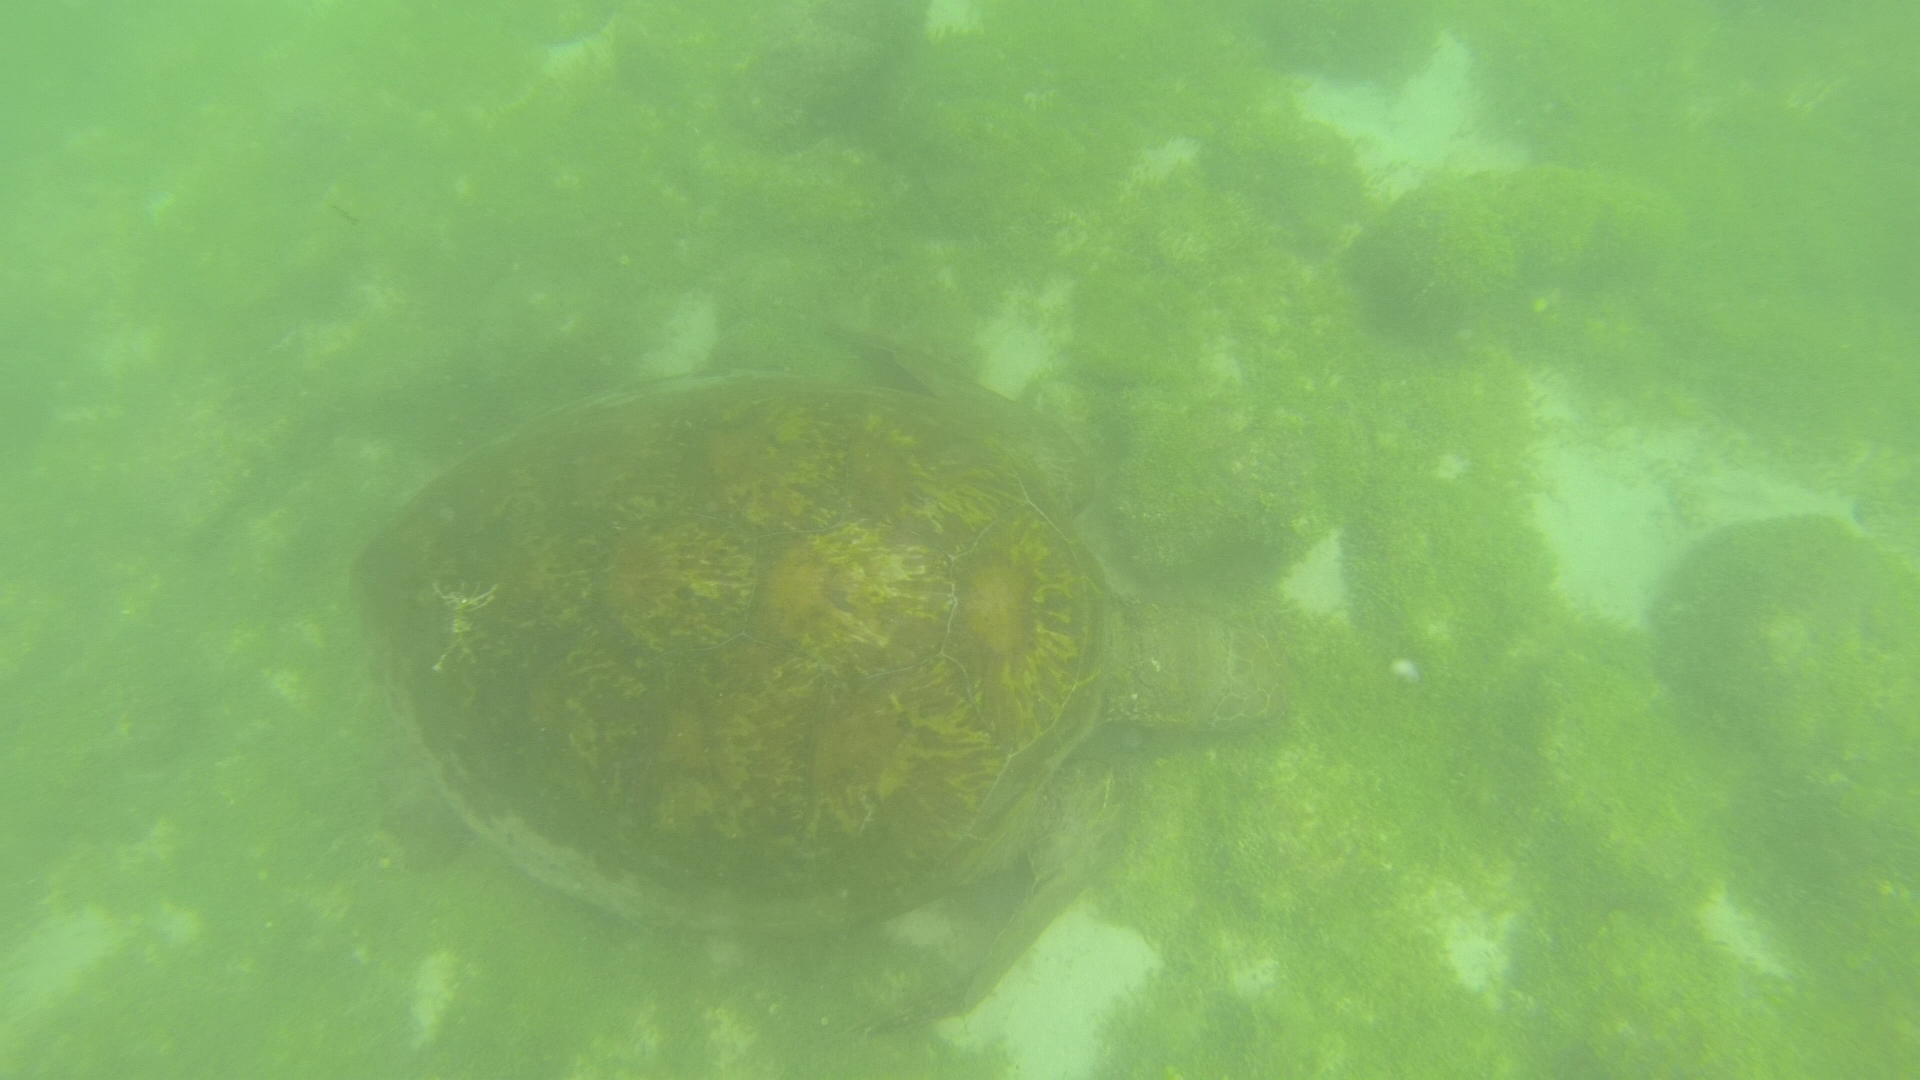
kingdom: Animalia
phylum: Chordata
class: Testudines
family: Cheloniidae
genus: Chelonia
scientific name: Chelonia mydas
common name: Green turtle
